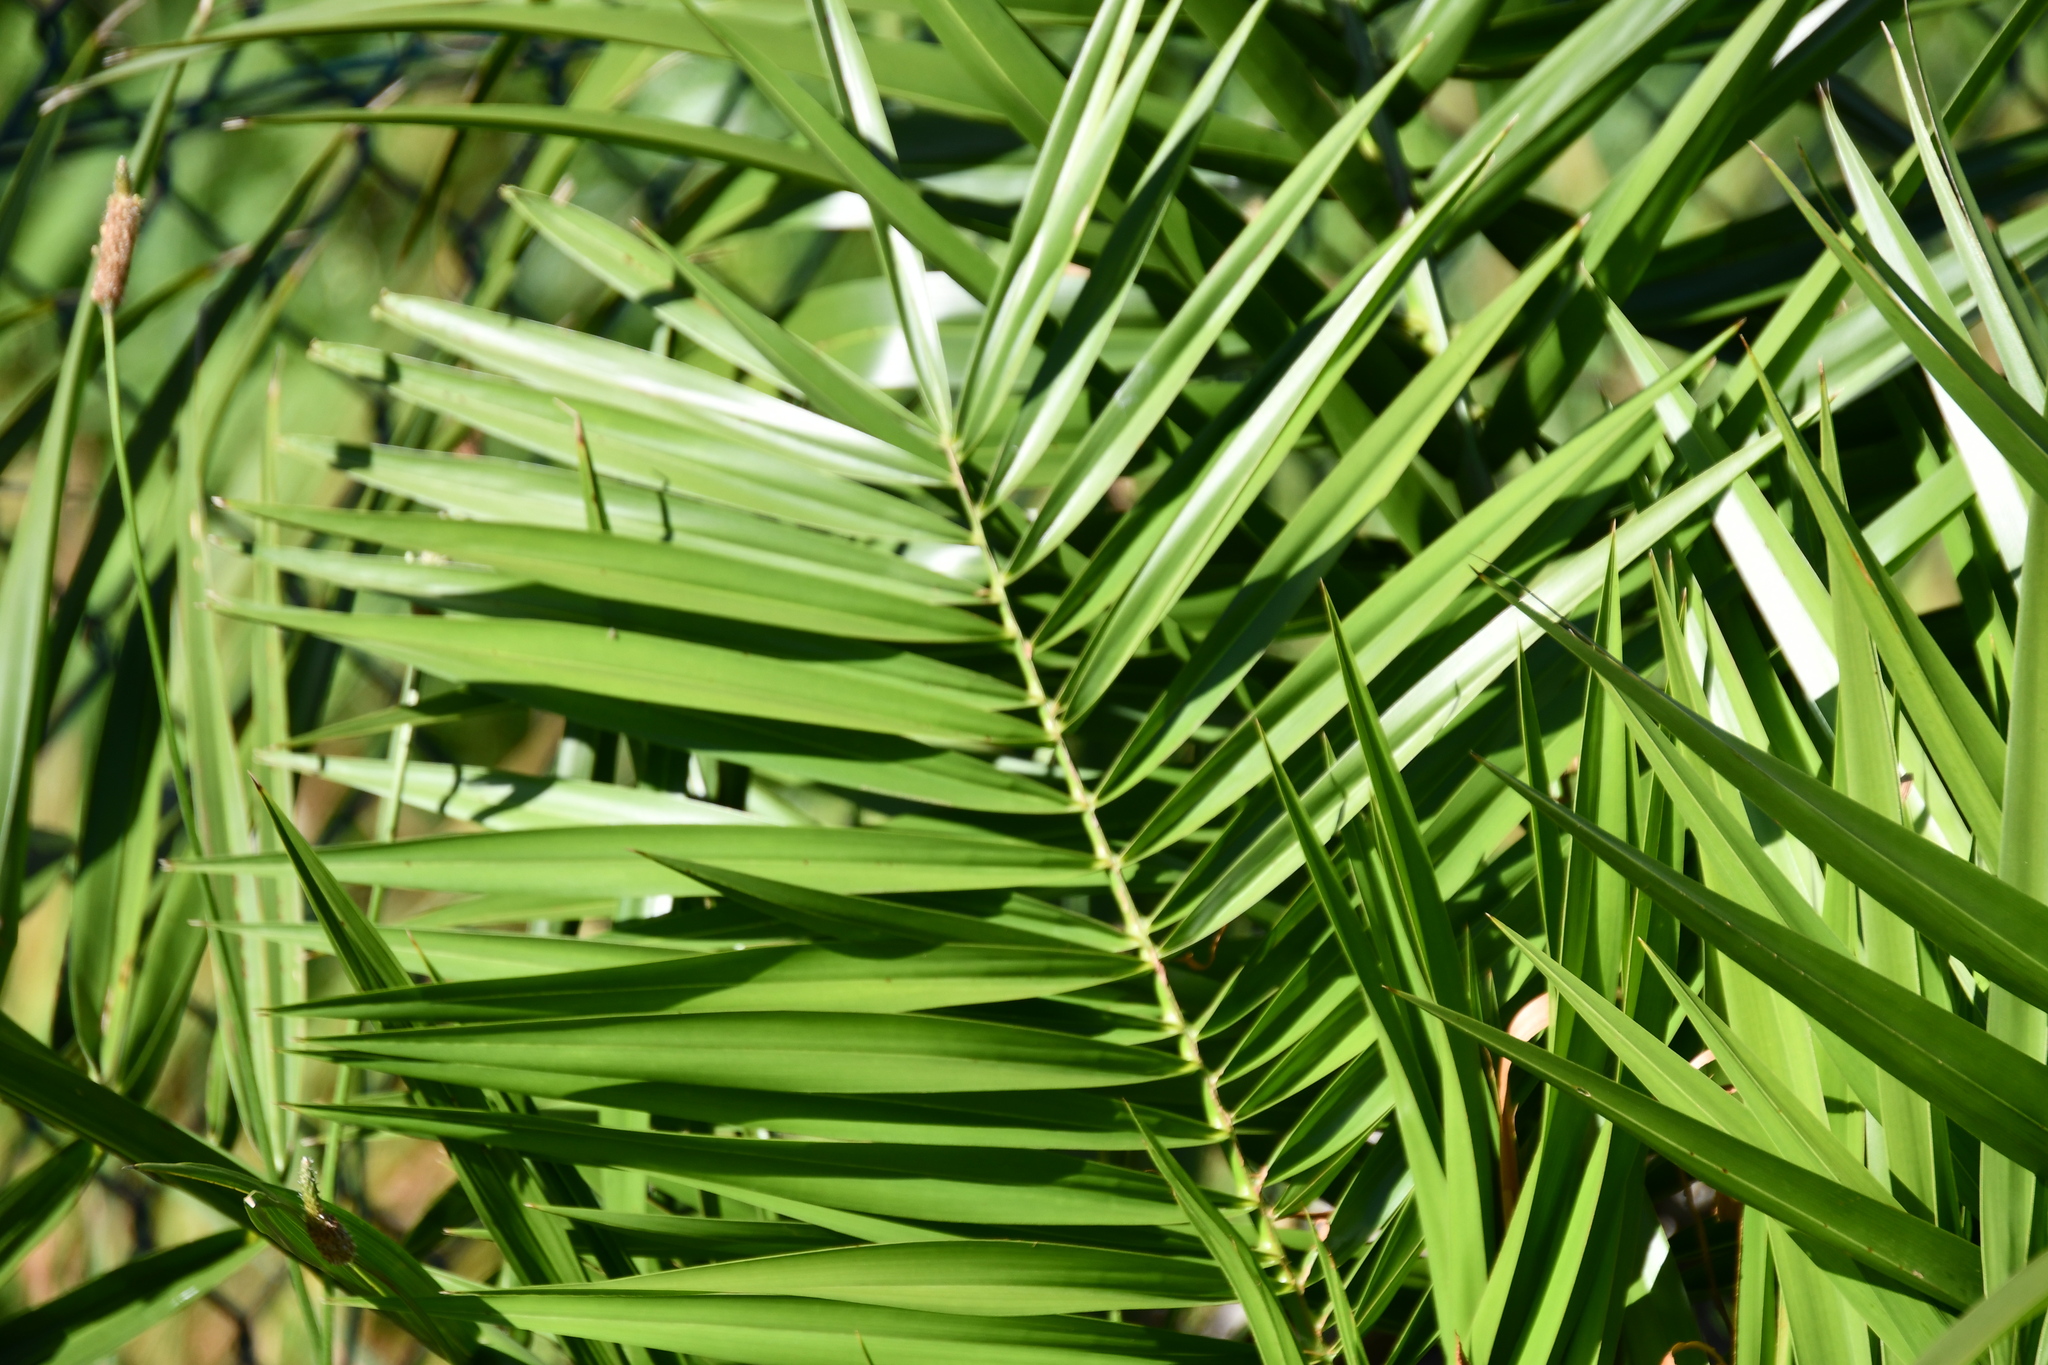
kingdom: Plantae
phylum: Tracheophyta
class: Liliopsida
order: Arecales
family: Arecaceae
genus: Phoenix
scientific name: Phoenix canariensis
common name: Canary island date palm
